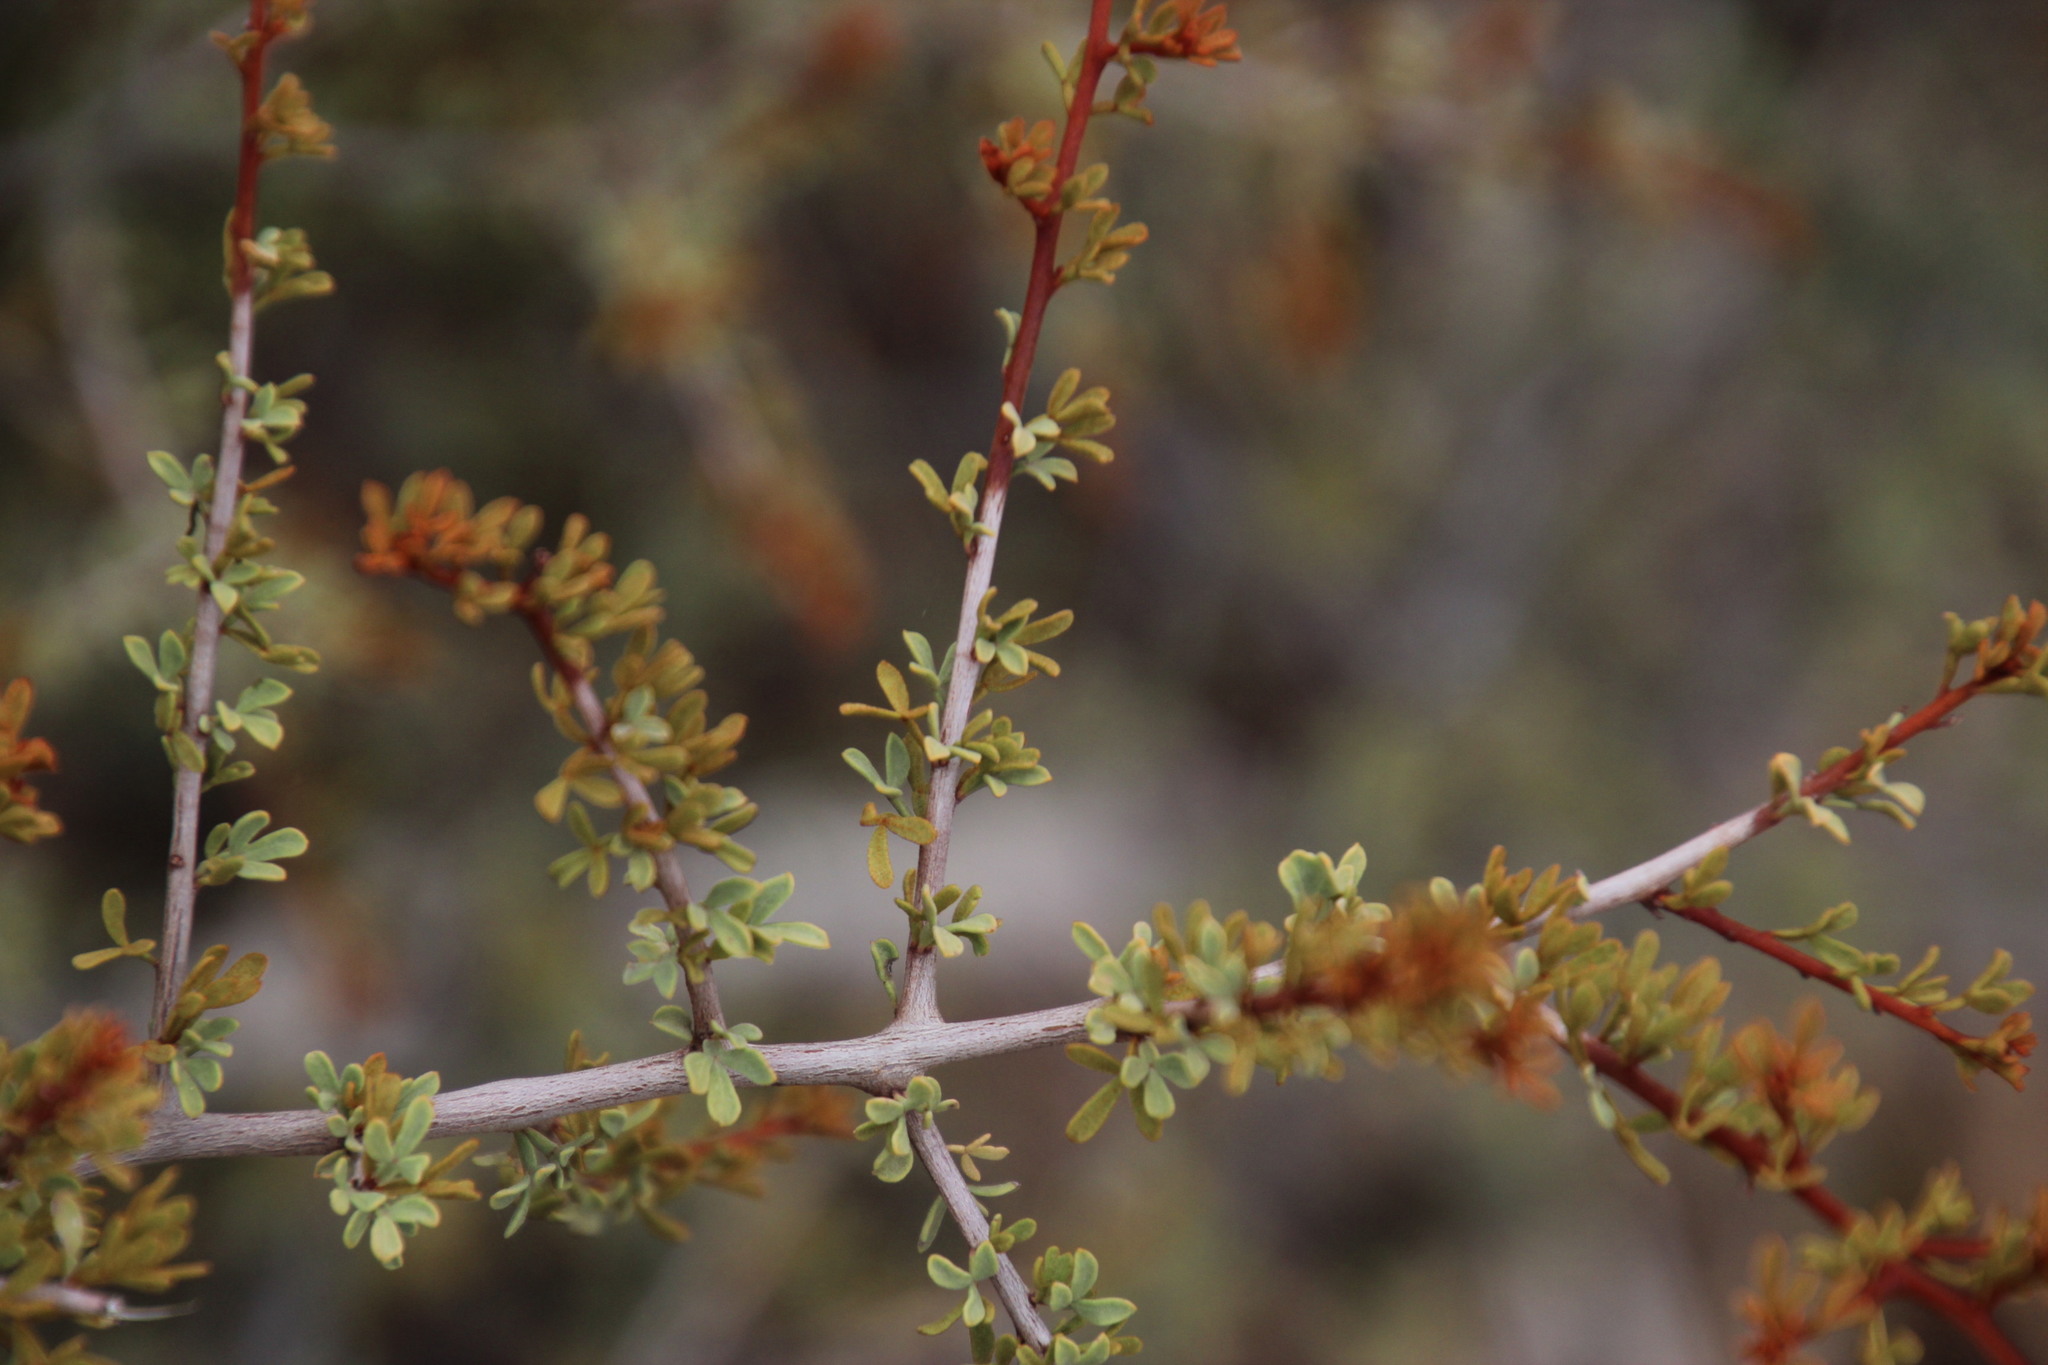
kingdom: Plantae
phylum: Tracheophyta
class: Magnoliopsida
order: Sapindales
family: Anacardiaceae
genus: Searsia
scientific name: Searsia horrida
